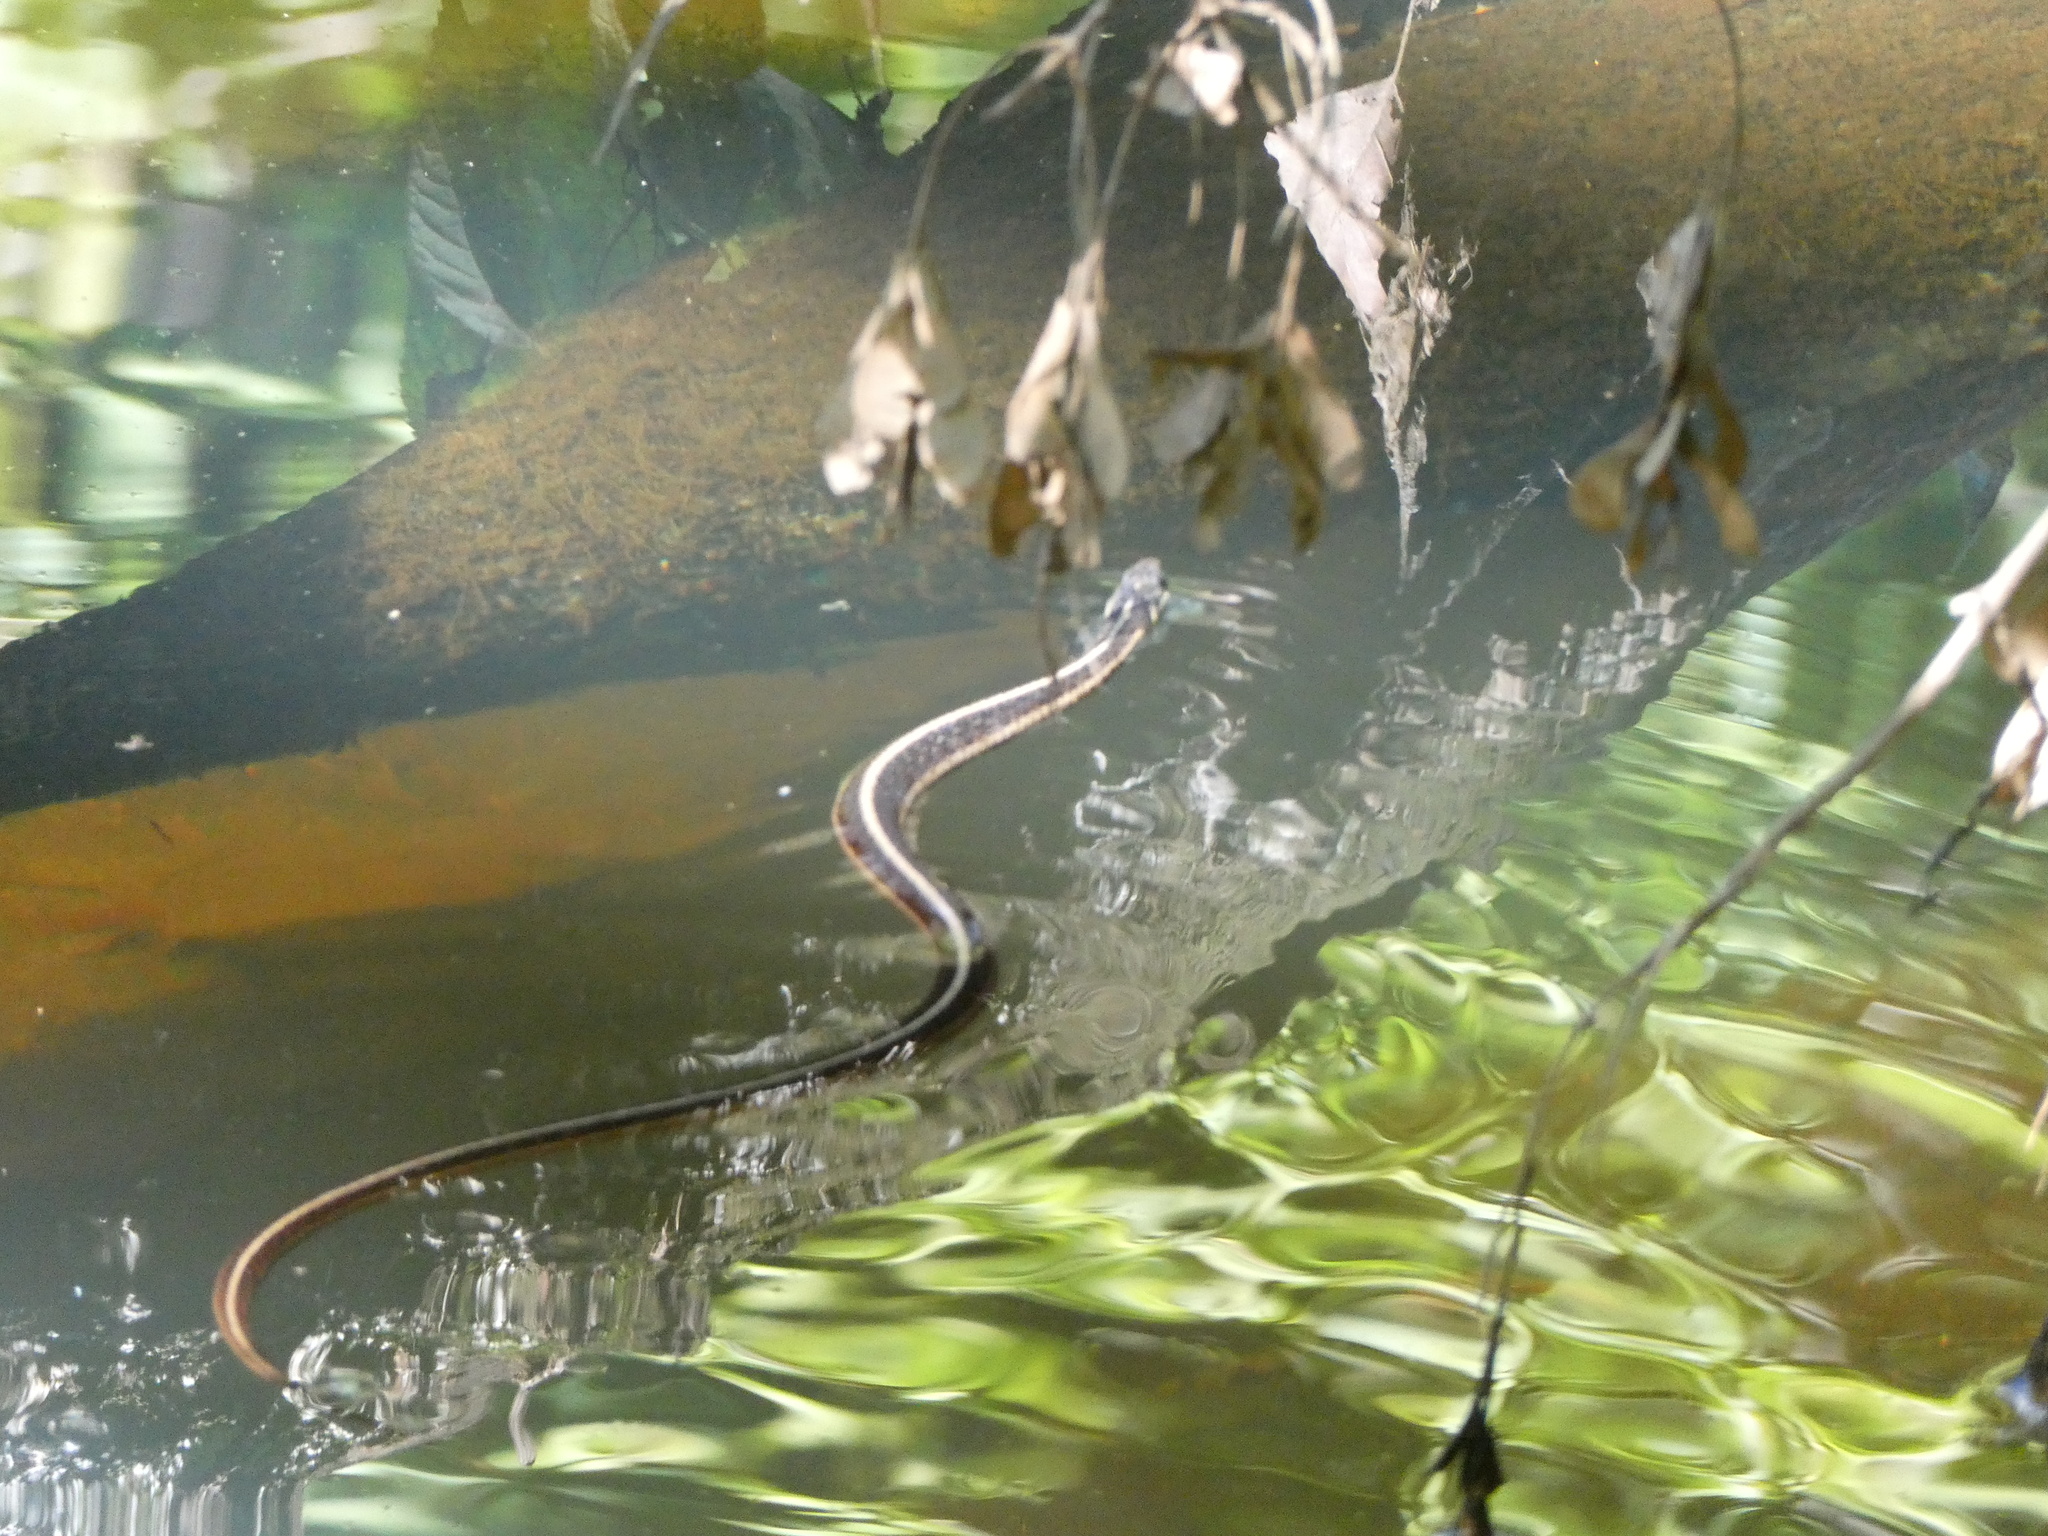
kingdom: Animalia
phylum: Chordata
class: Squamata
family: Colubridae
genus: Thamnophis
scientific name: Thamnophis sirtalis
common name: Common garter snake
